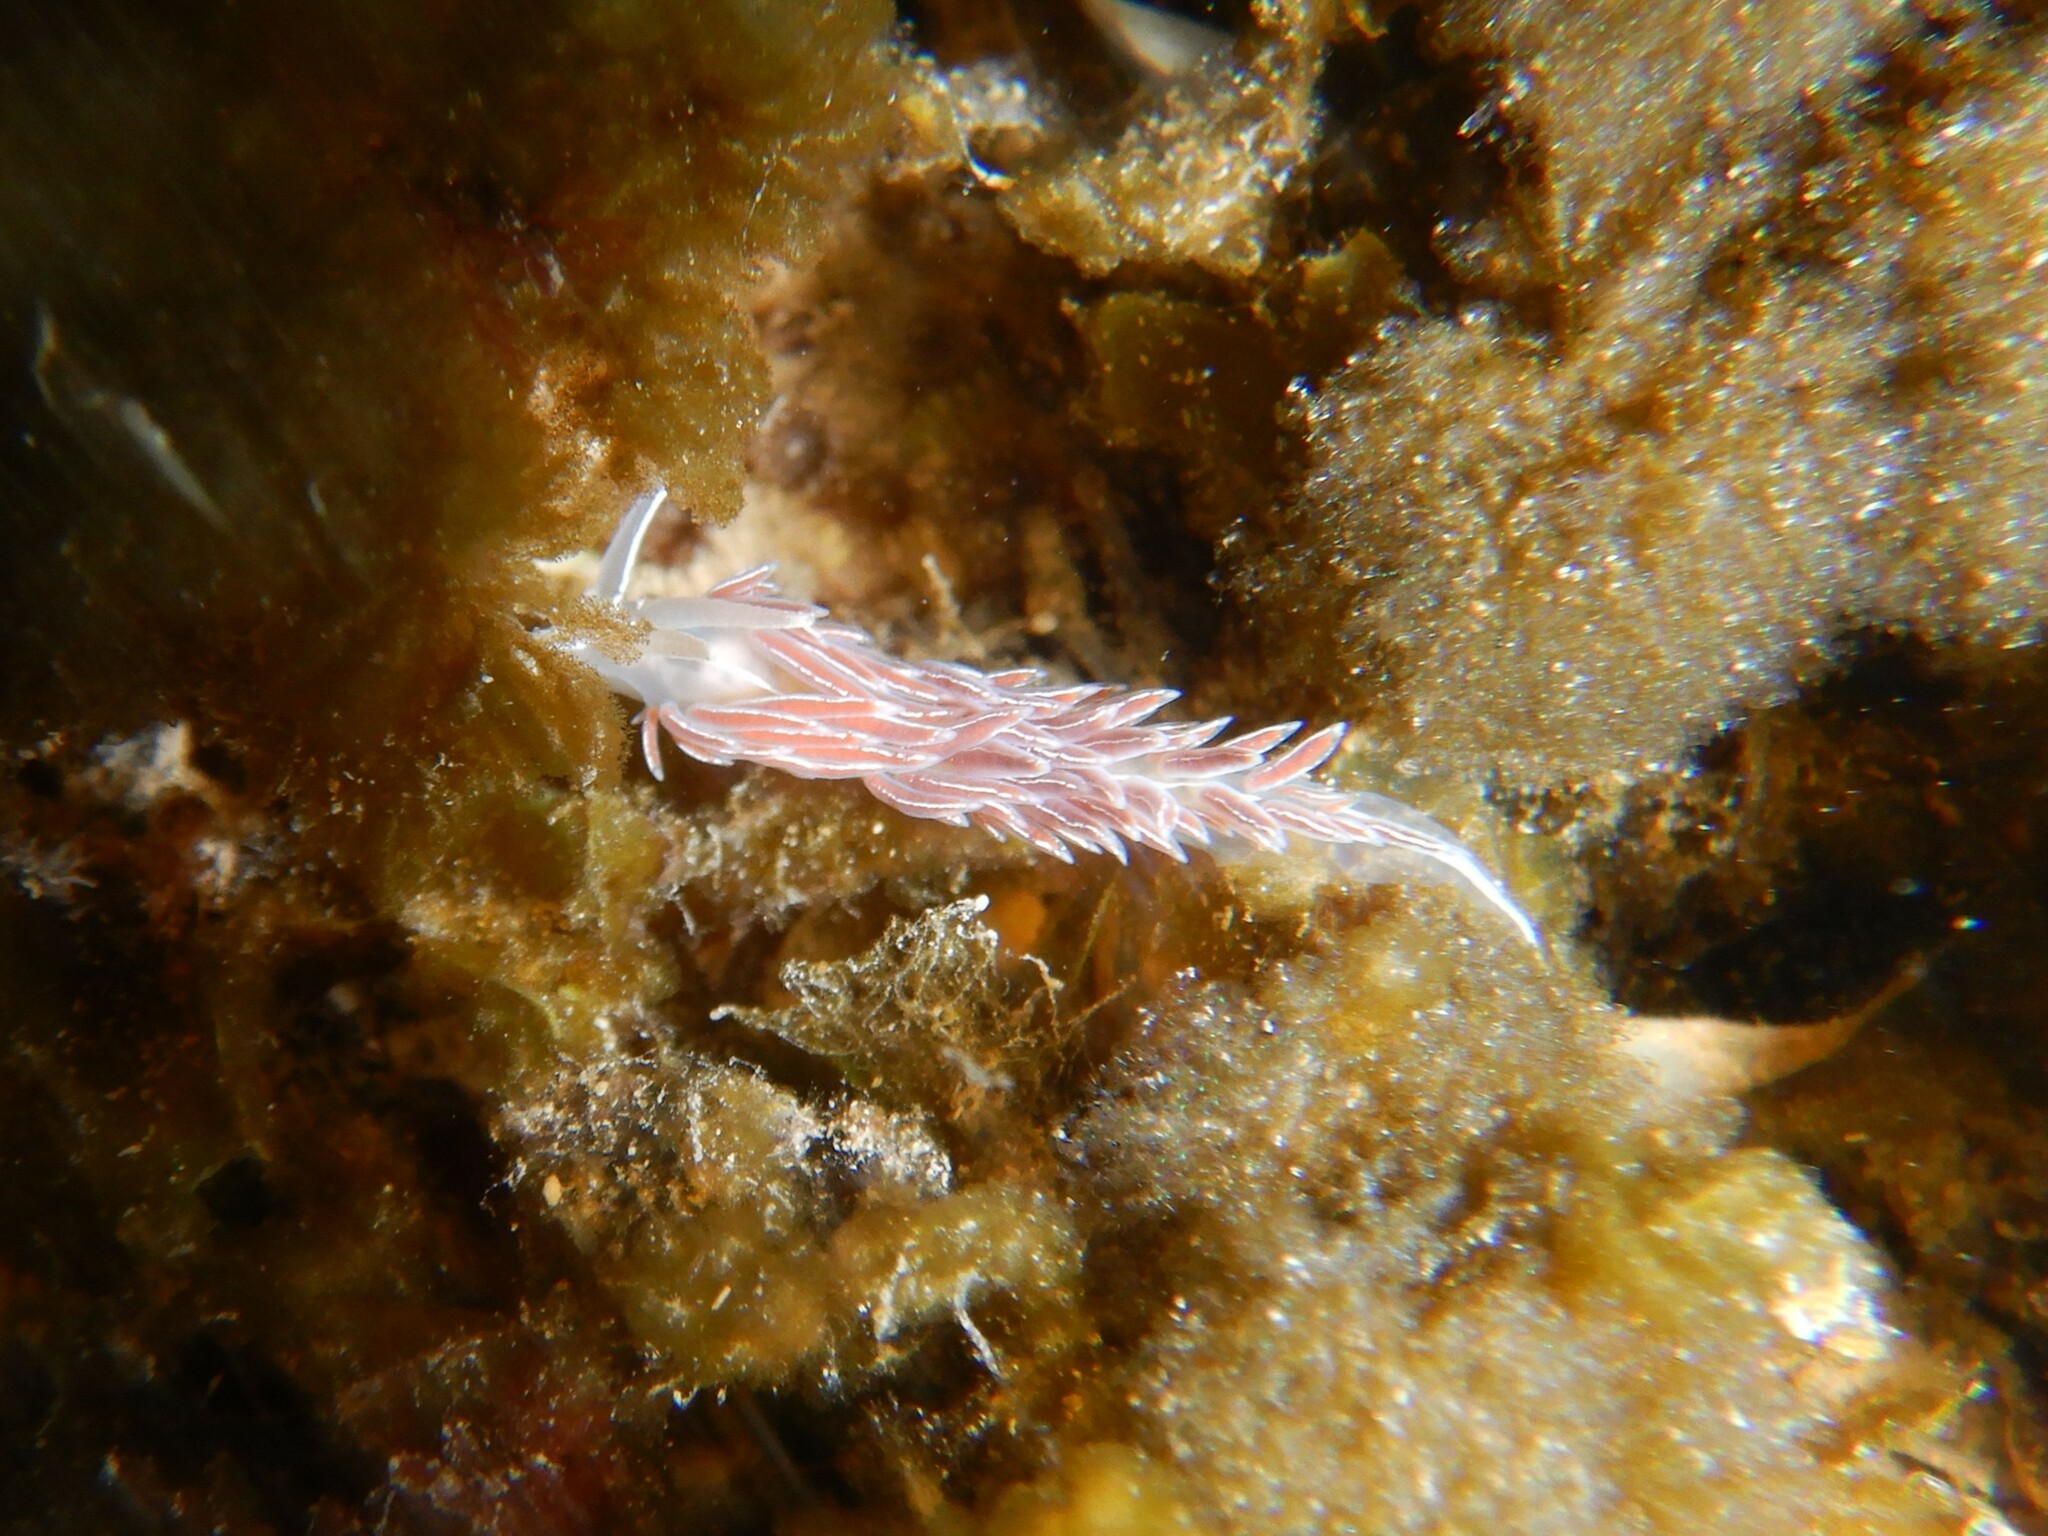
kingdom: Animalia
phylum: Mollusca
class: Gastropoda
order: Nudibranchia
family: Coryphellidae
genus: Coryphella
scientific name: Coryphella lineata
